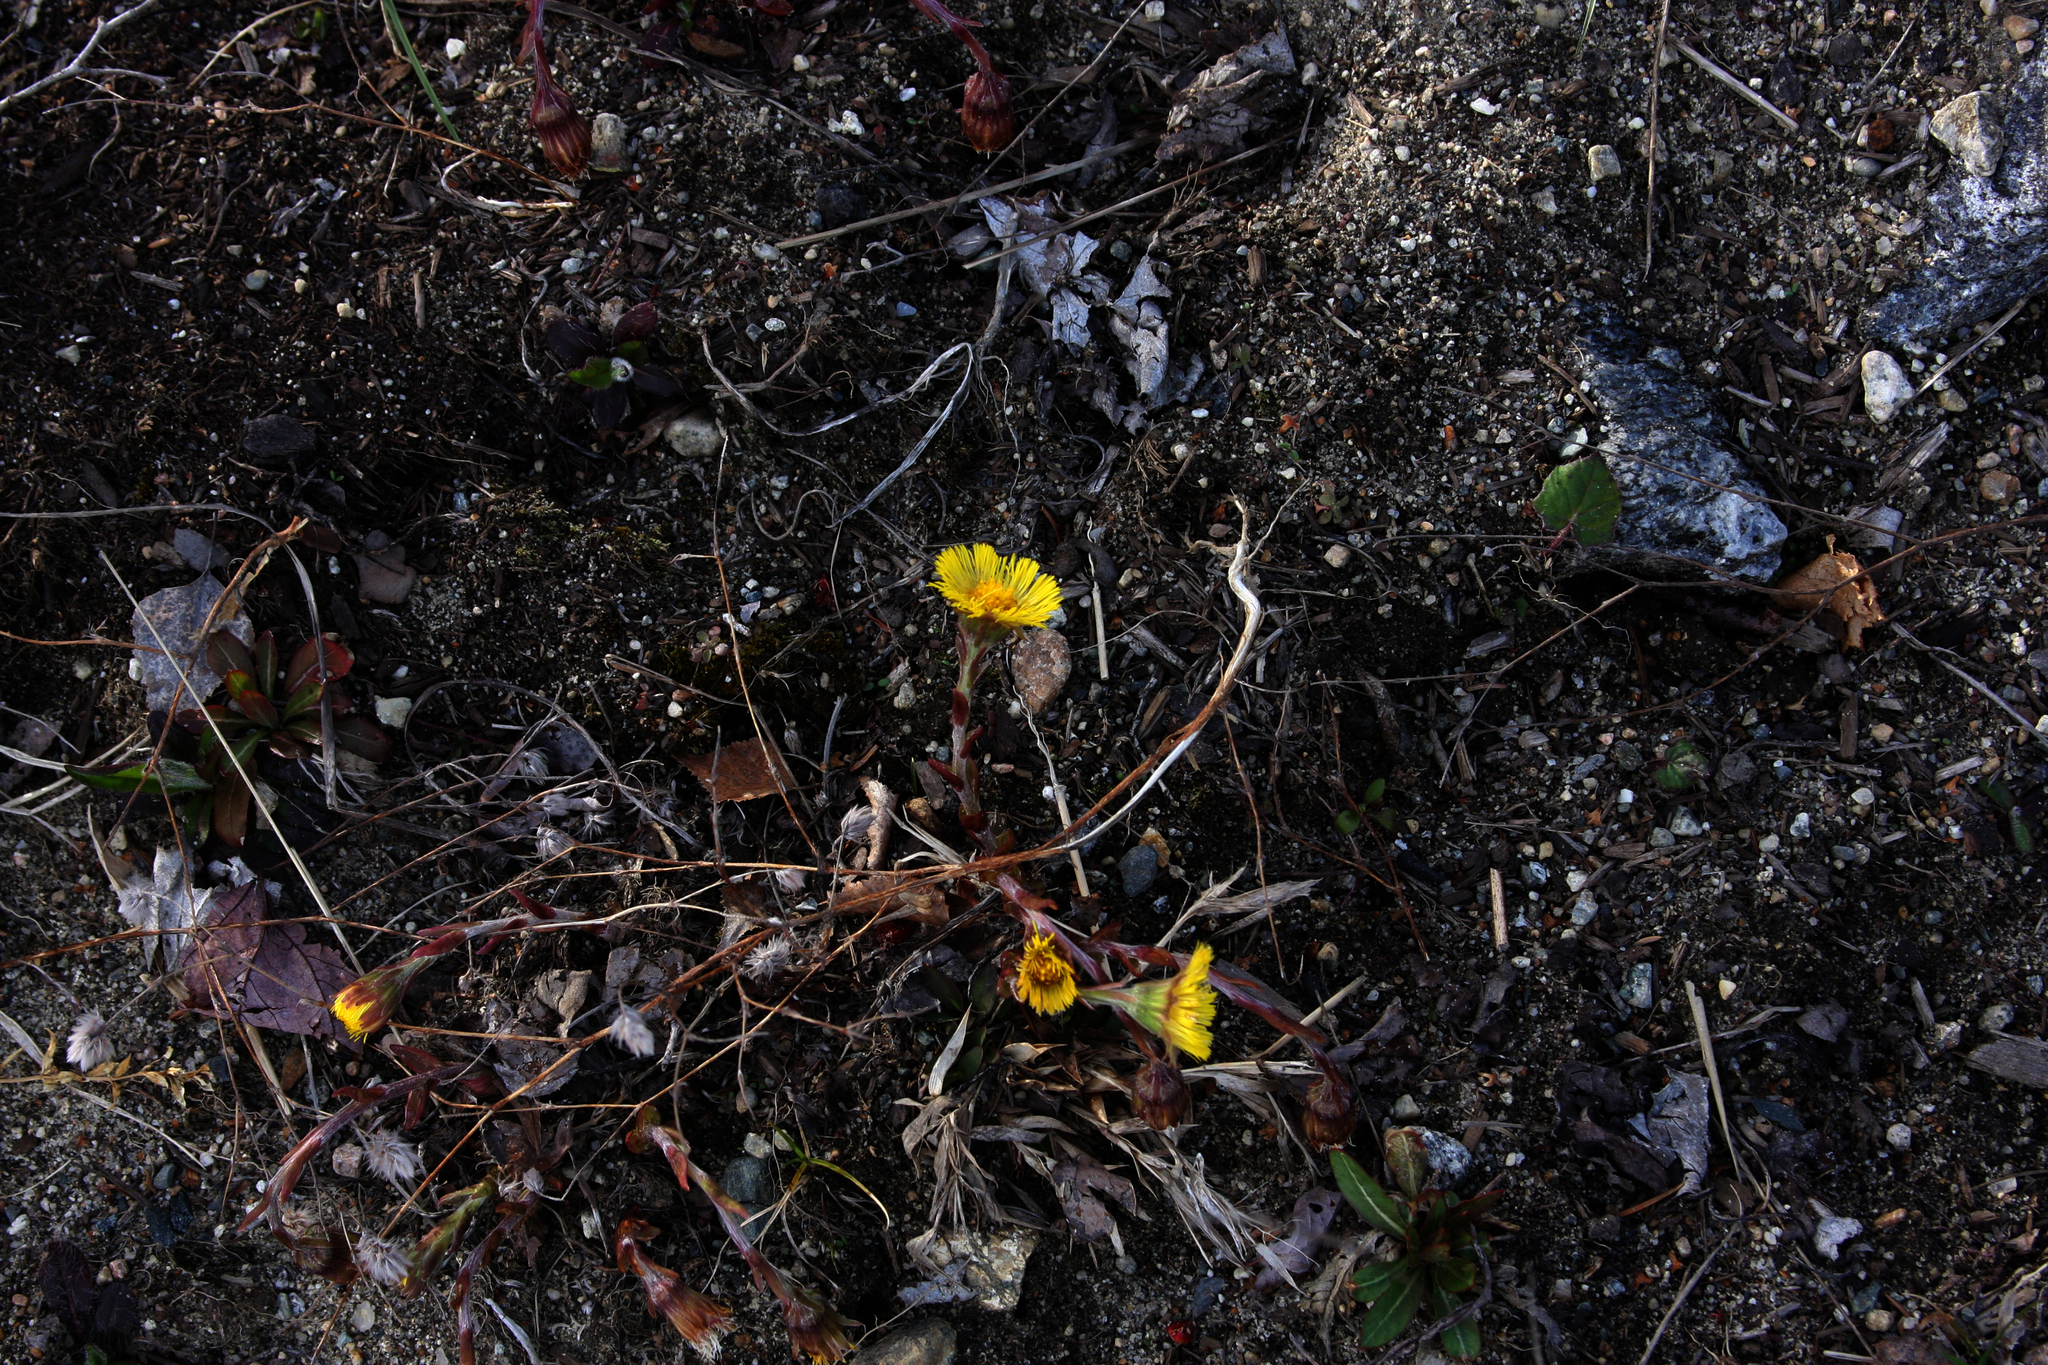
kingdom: Plantae
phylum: Tracheophyta
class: Magnoliopsida
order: Asterales
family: Asteraceae
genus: Tussilago
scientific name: Tussilago farfara
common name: Coltsfoot
